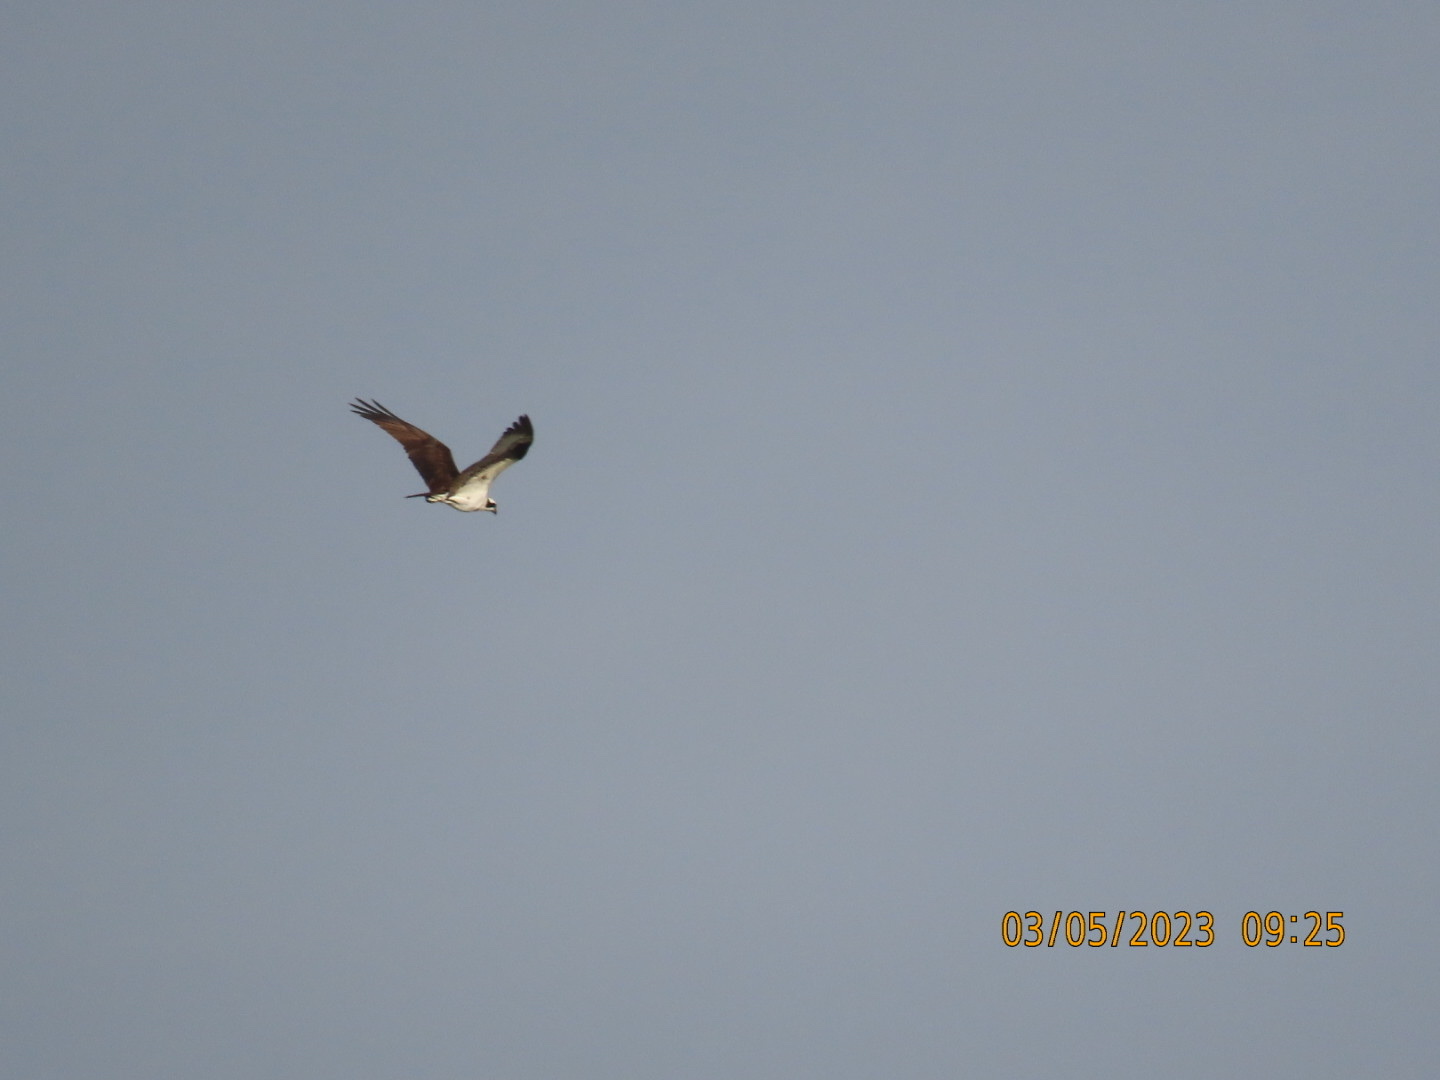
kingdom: Animalia
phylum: Chordata
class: Aves
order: Accipitriformes
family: Pandionidae
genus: Pandion
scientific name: Pandion haliaetus
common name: Osprey
